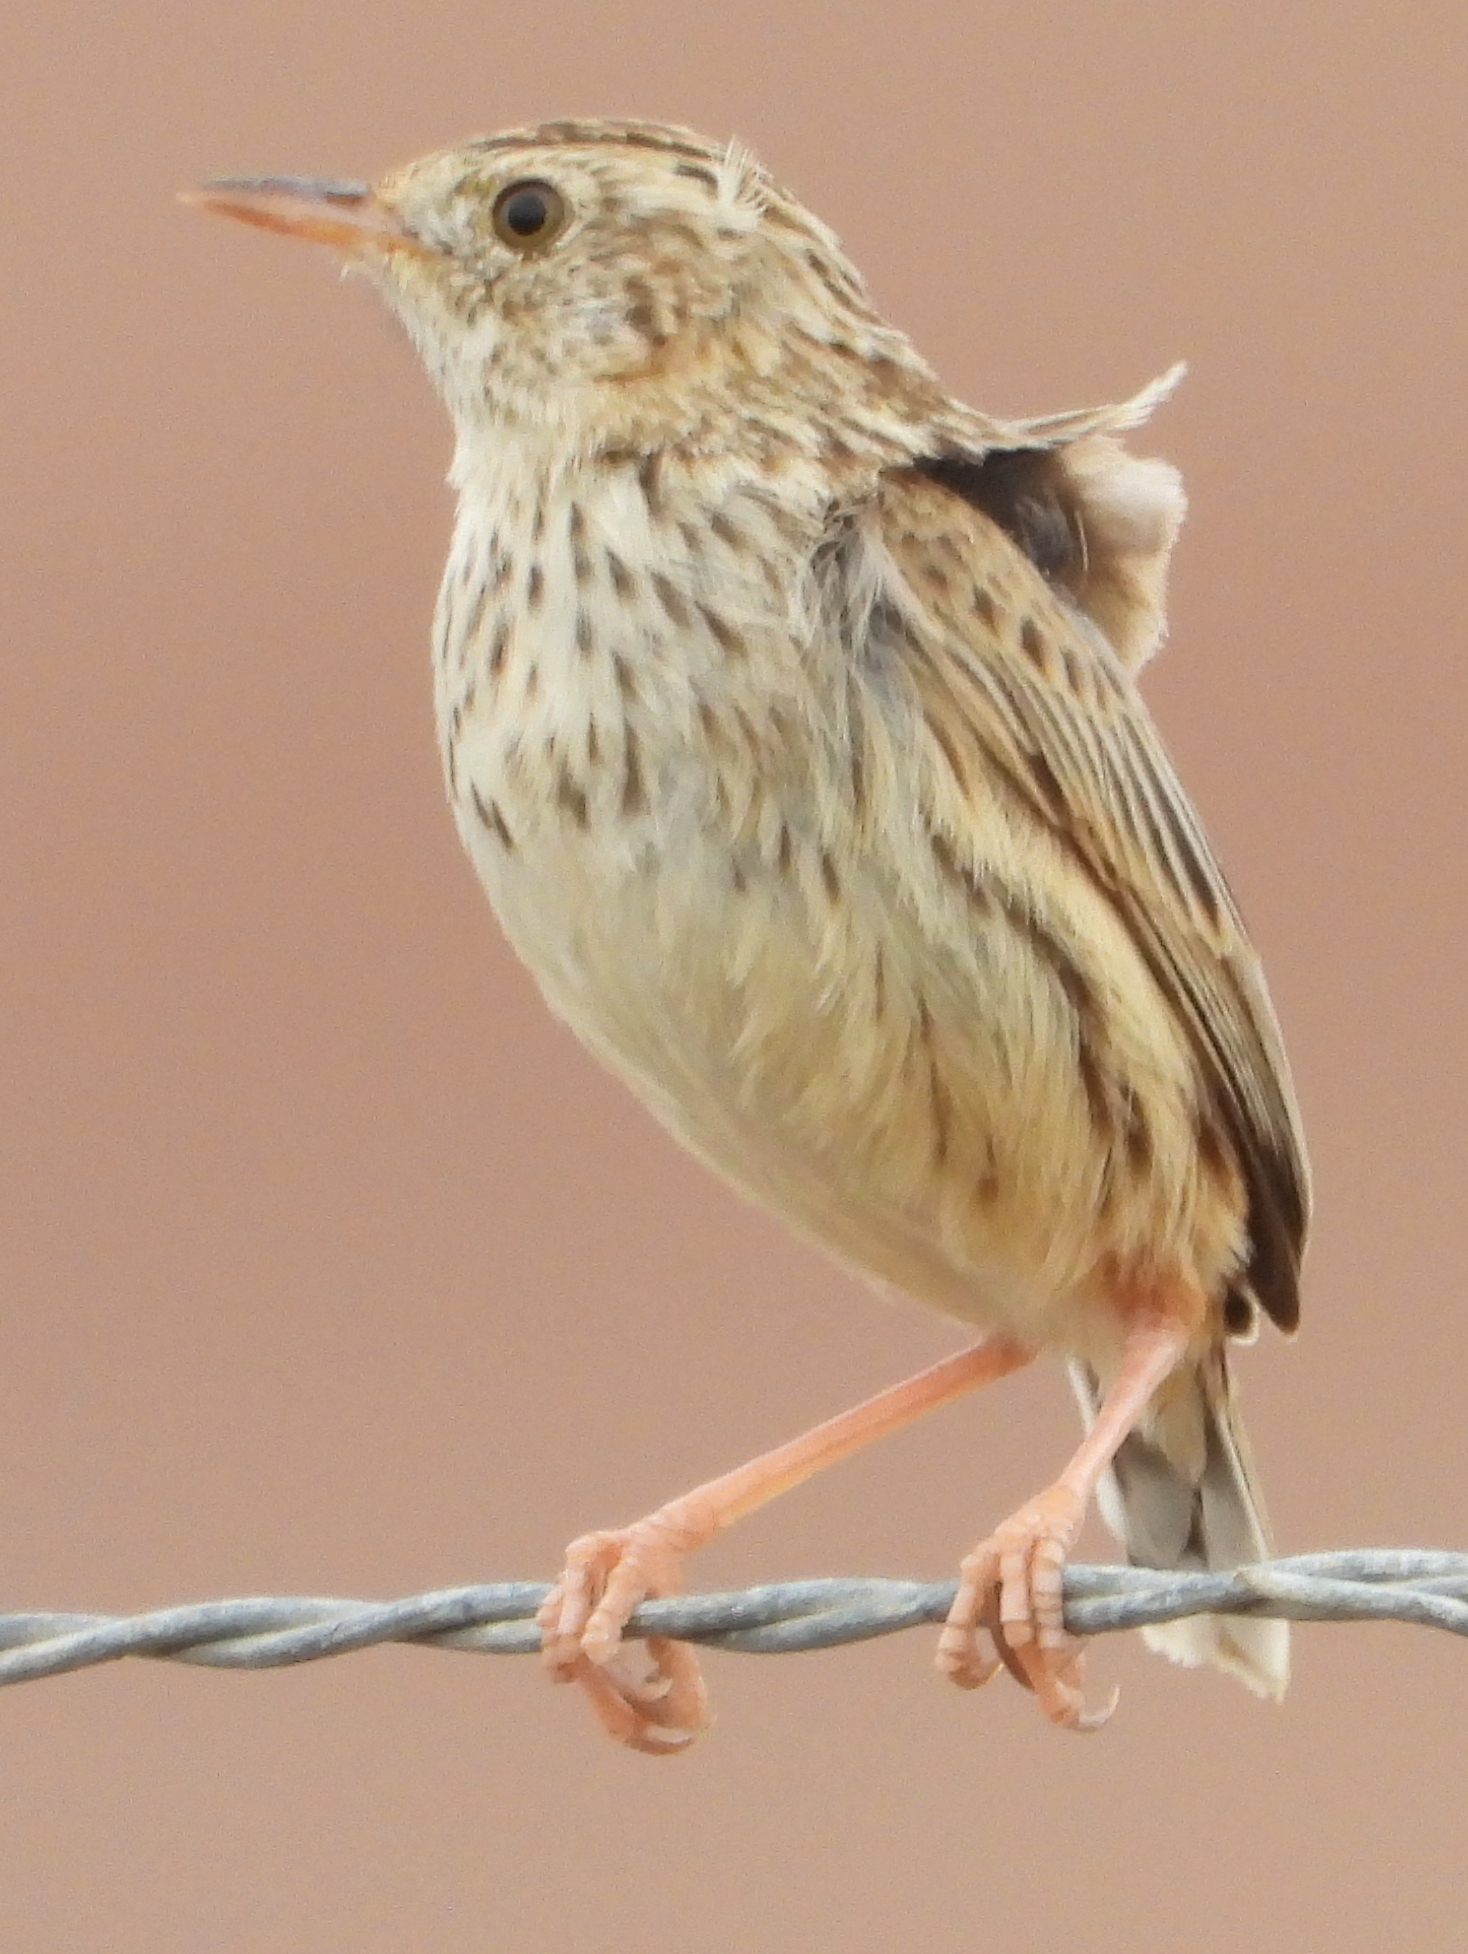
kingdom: Animalia
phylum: Chordata
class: Aves
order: Passeriformes
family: Cisticolidae
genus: Cisticola
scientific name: Cisticola textrix
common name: Cloud cisticola
